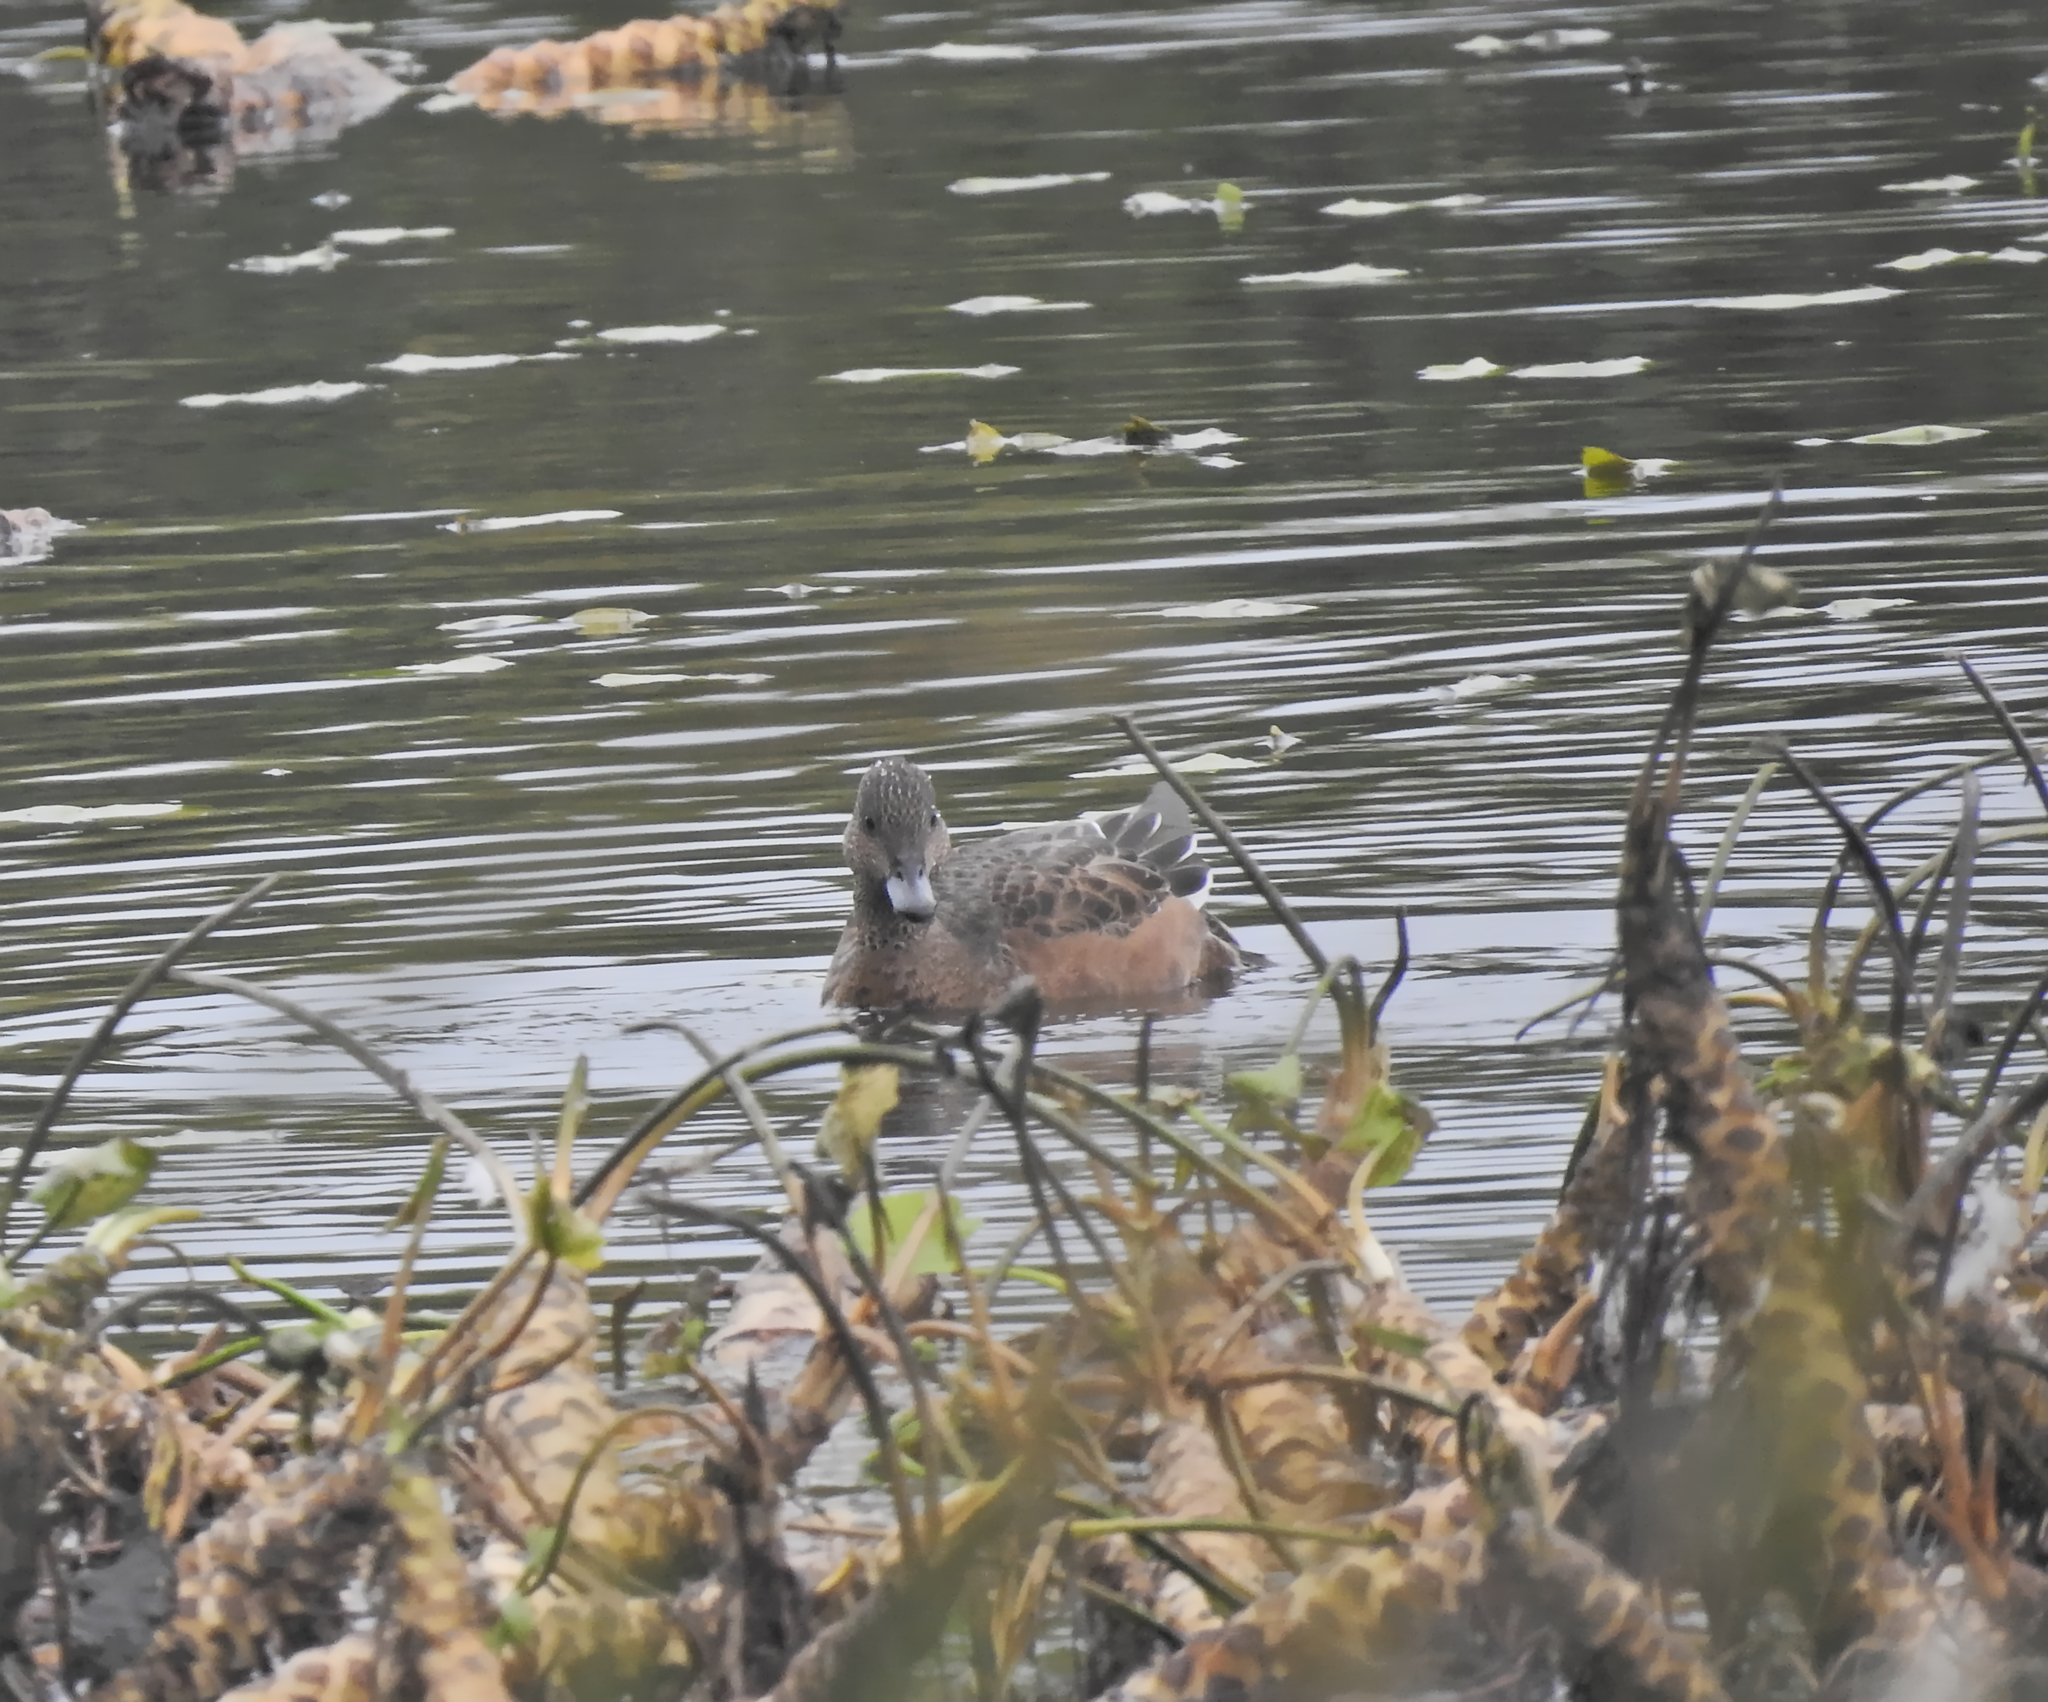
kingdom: Animalia
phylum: Chordata
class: Aves
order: Anseriformes
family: Anatidae
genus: Mareca
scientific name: Mareca penelope
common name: Eurasian wigeon
